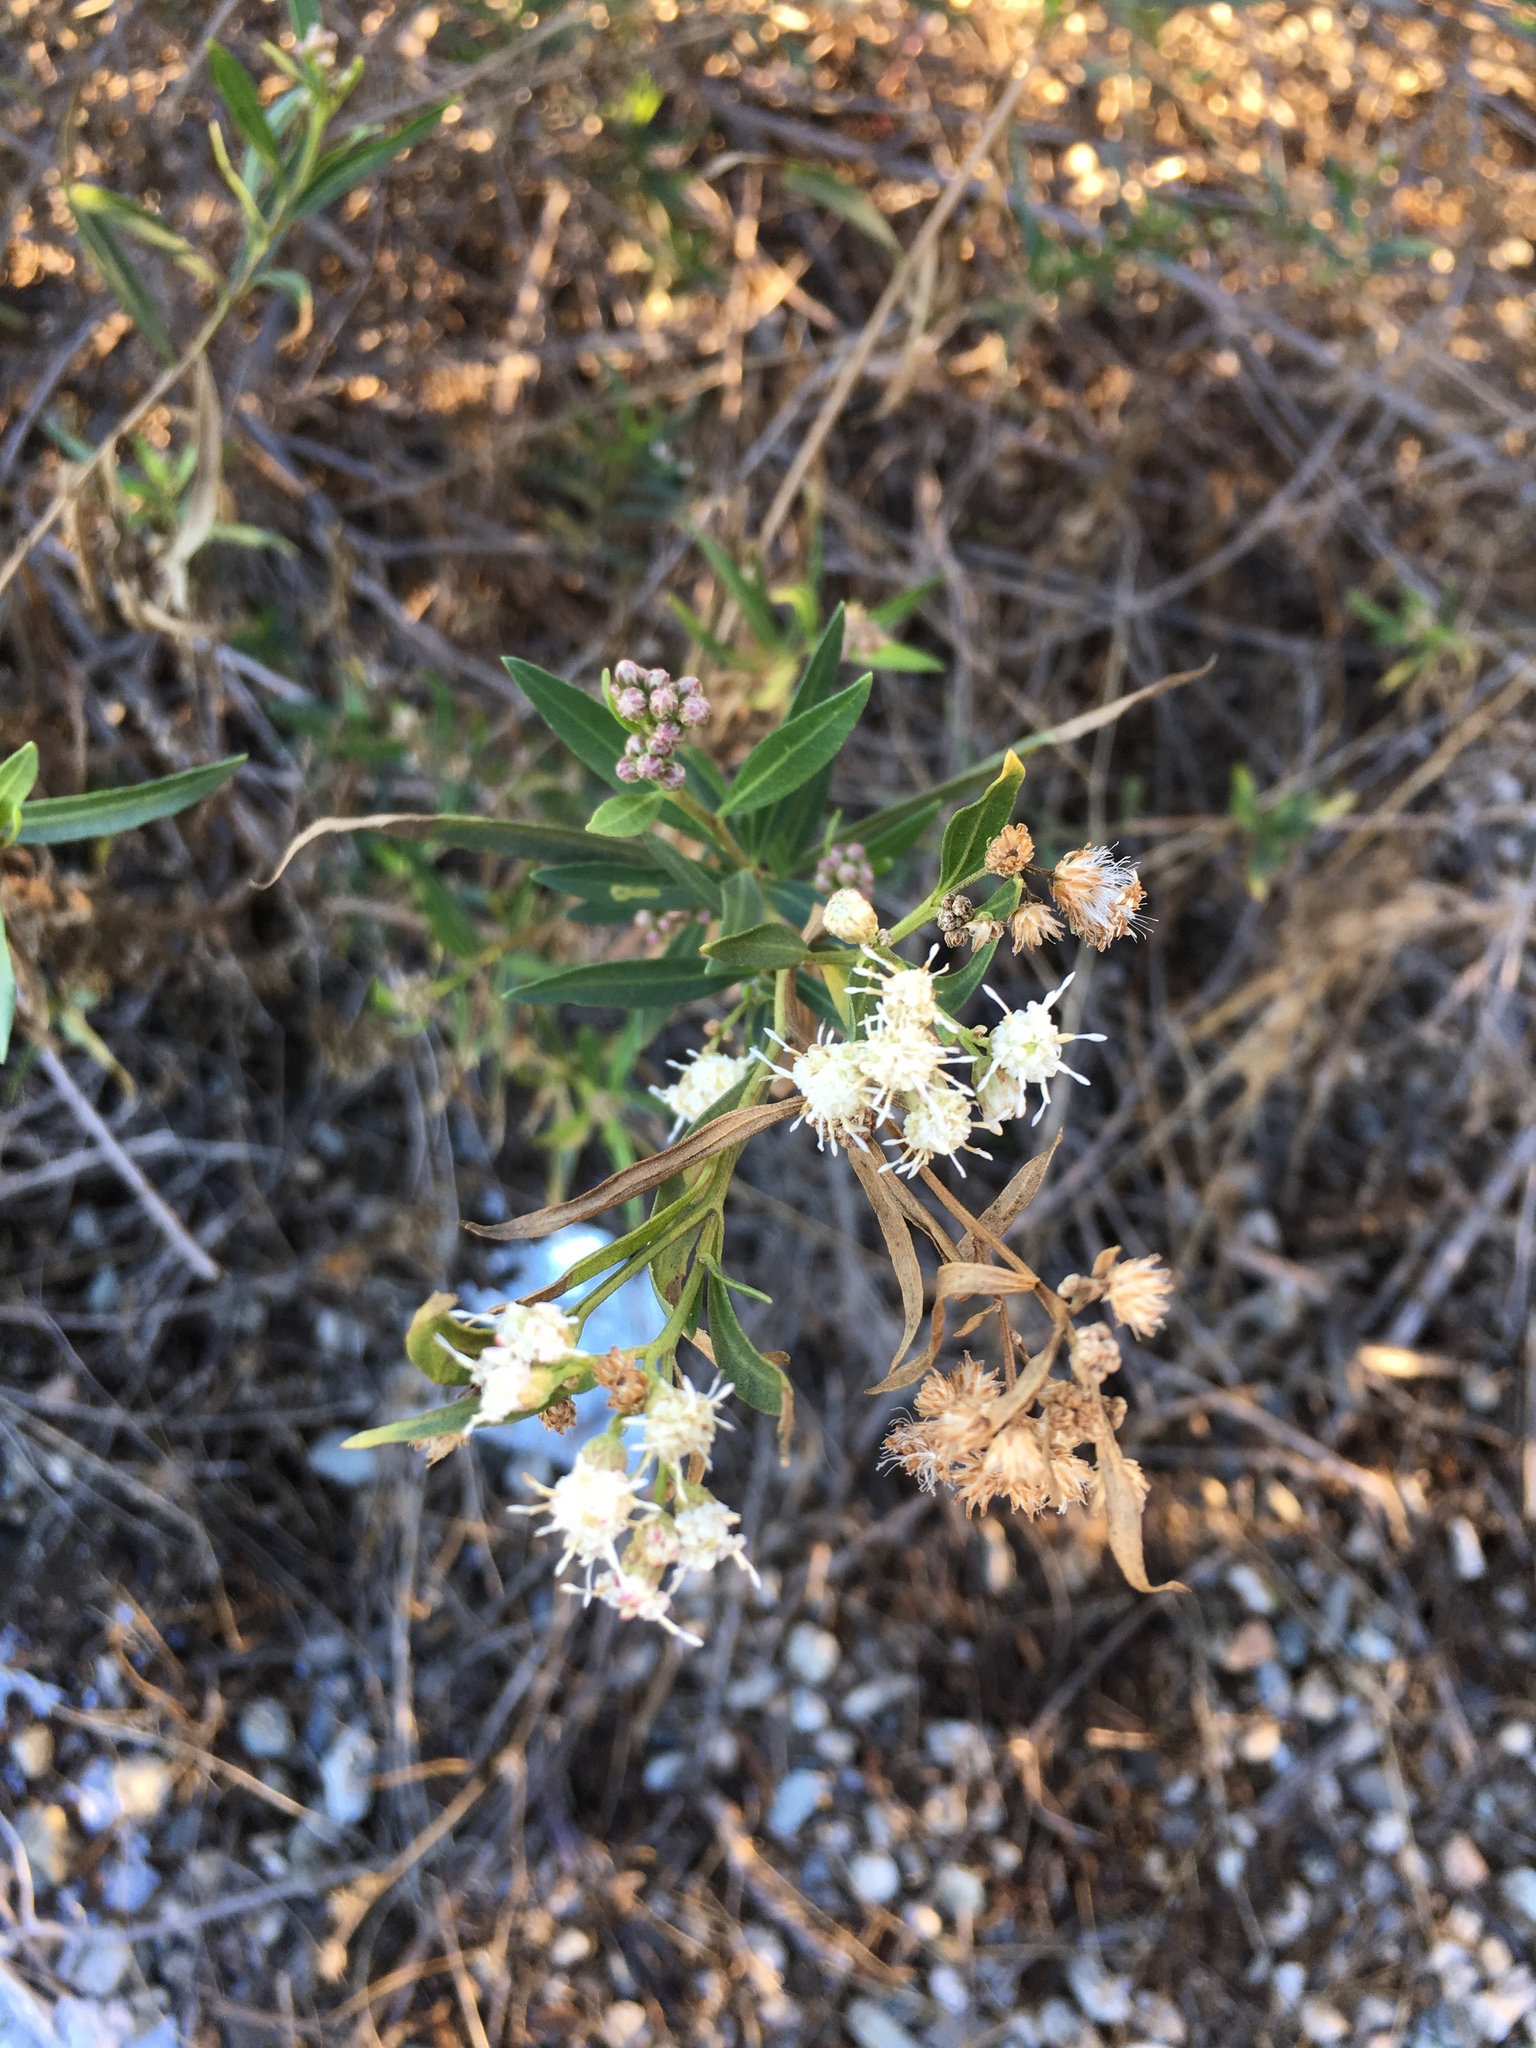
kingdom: Plantae
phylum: Tracheophyta
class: Magnoliopsida
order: Asterales
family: Asteraceae
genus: Baccharis
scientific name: Baccharis salicifolia
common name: Sticky baccharis
